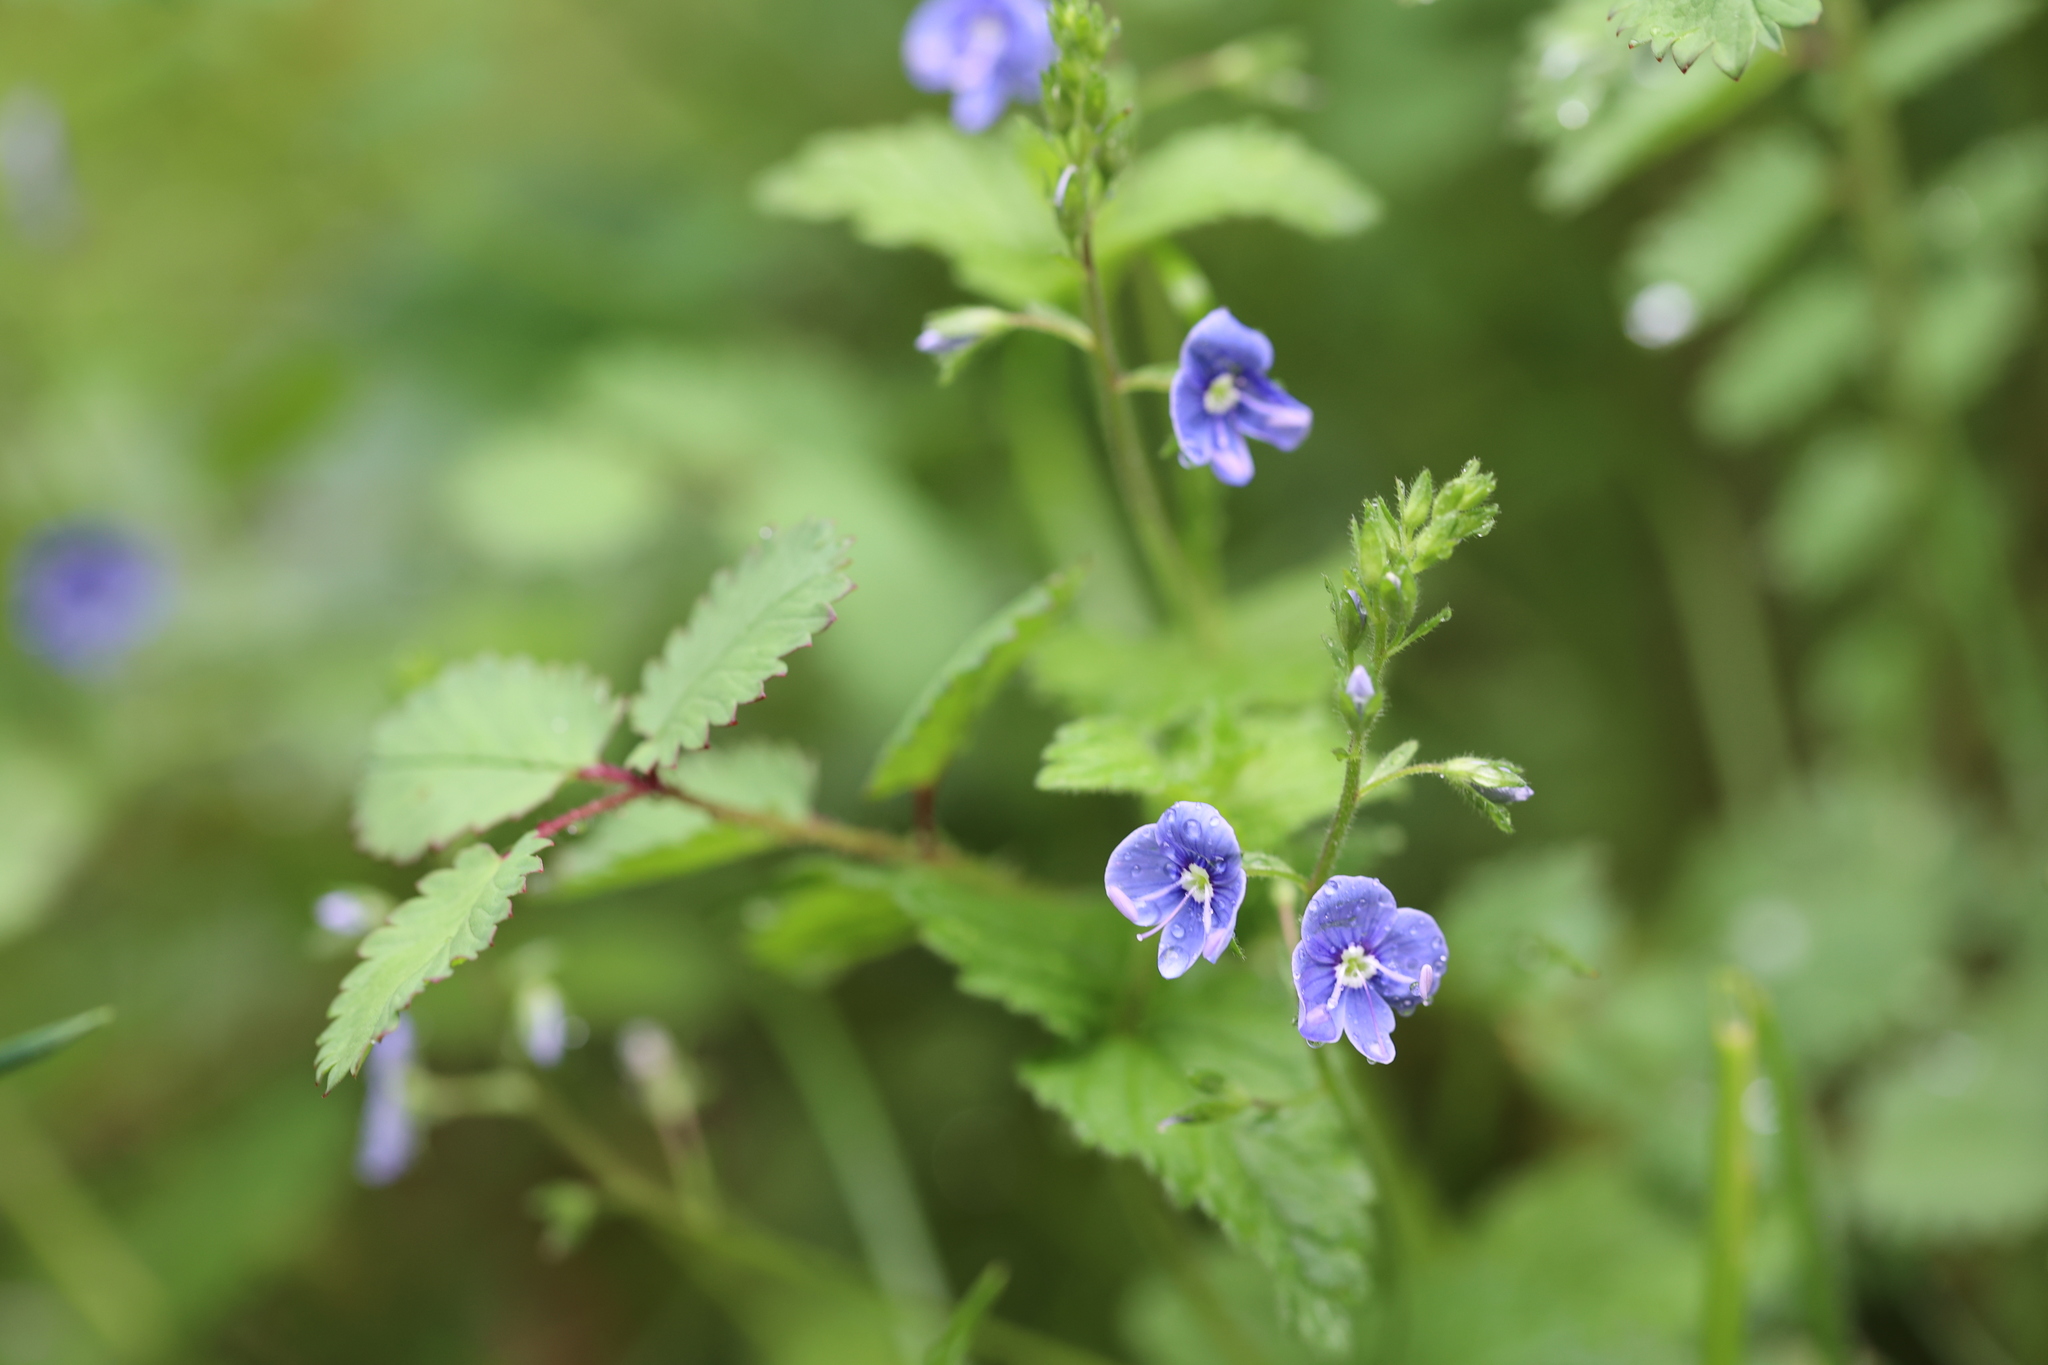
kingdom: Plantae
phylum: Tracheophyta
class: Magnoliopsida
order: Lamiales
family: Plantaginaceae
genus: Veronica
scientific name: Veronica chamaedrys
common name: Germander speedwell
